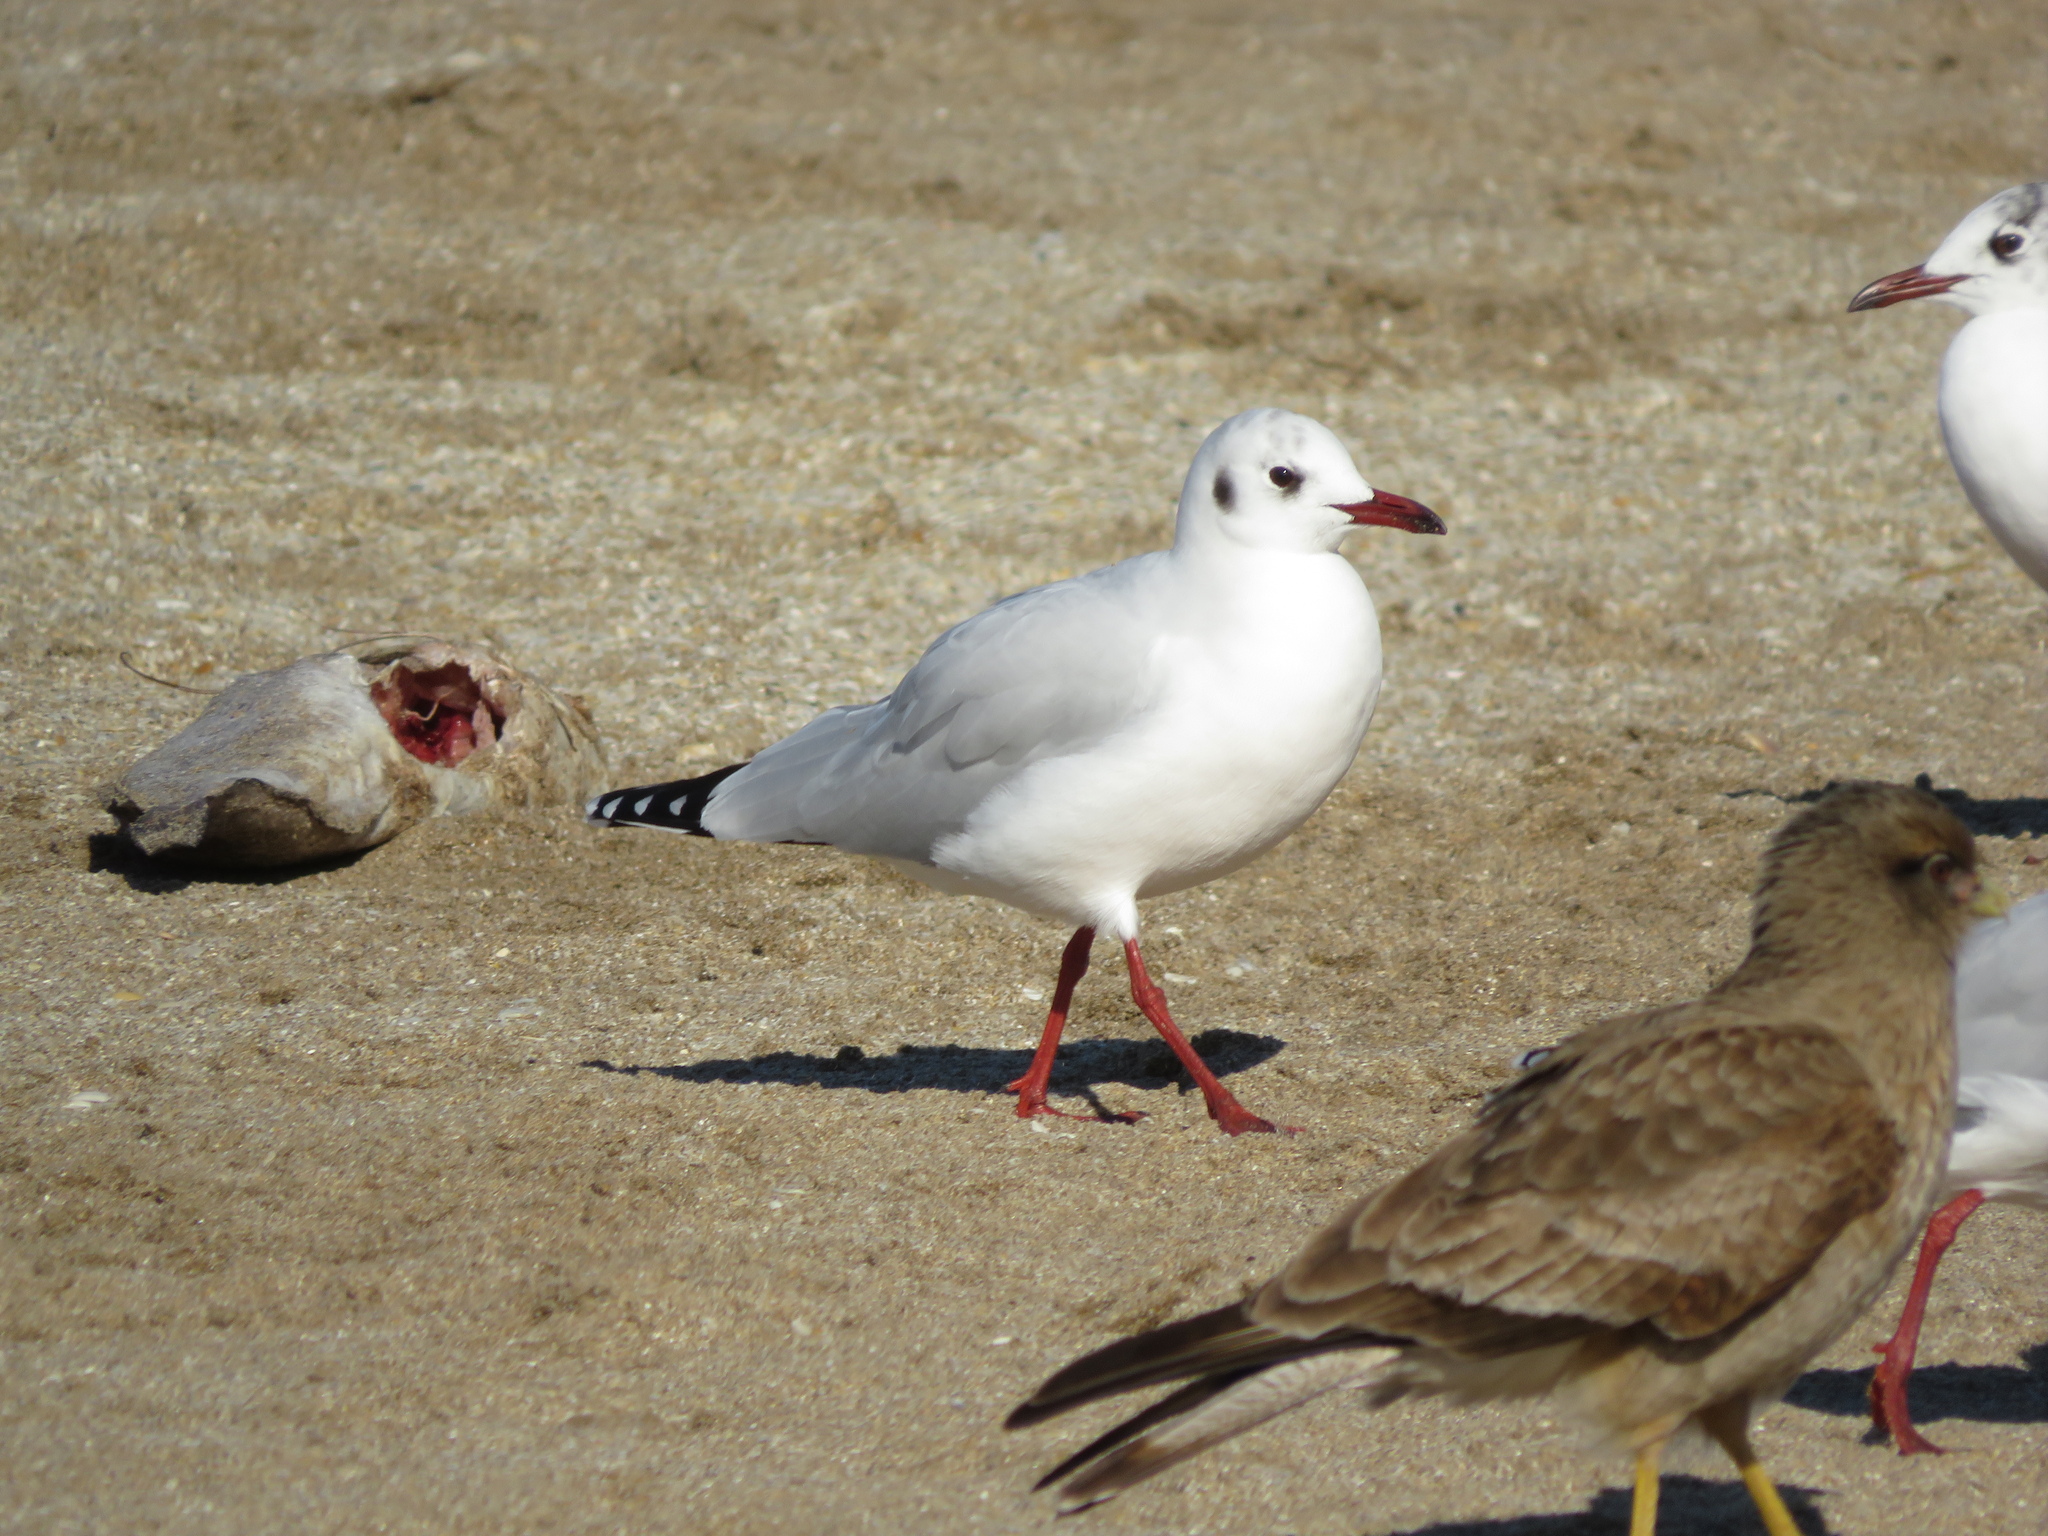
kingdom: Animalia
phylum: Chordata
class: Aves
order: Charadriiformes
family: Laridae
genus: Chroicocephalus
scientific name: Chroicocephalus maculipennis
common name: Brown-hooded gull
